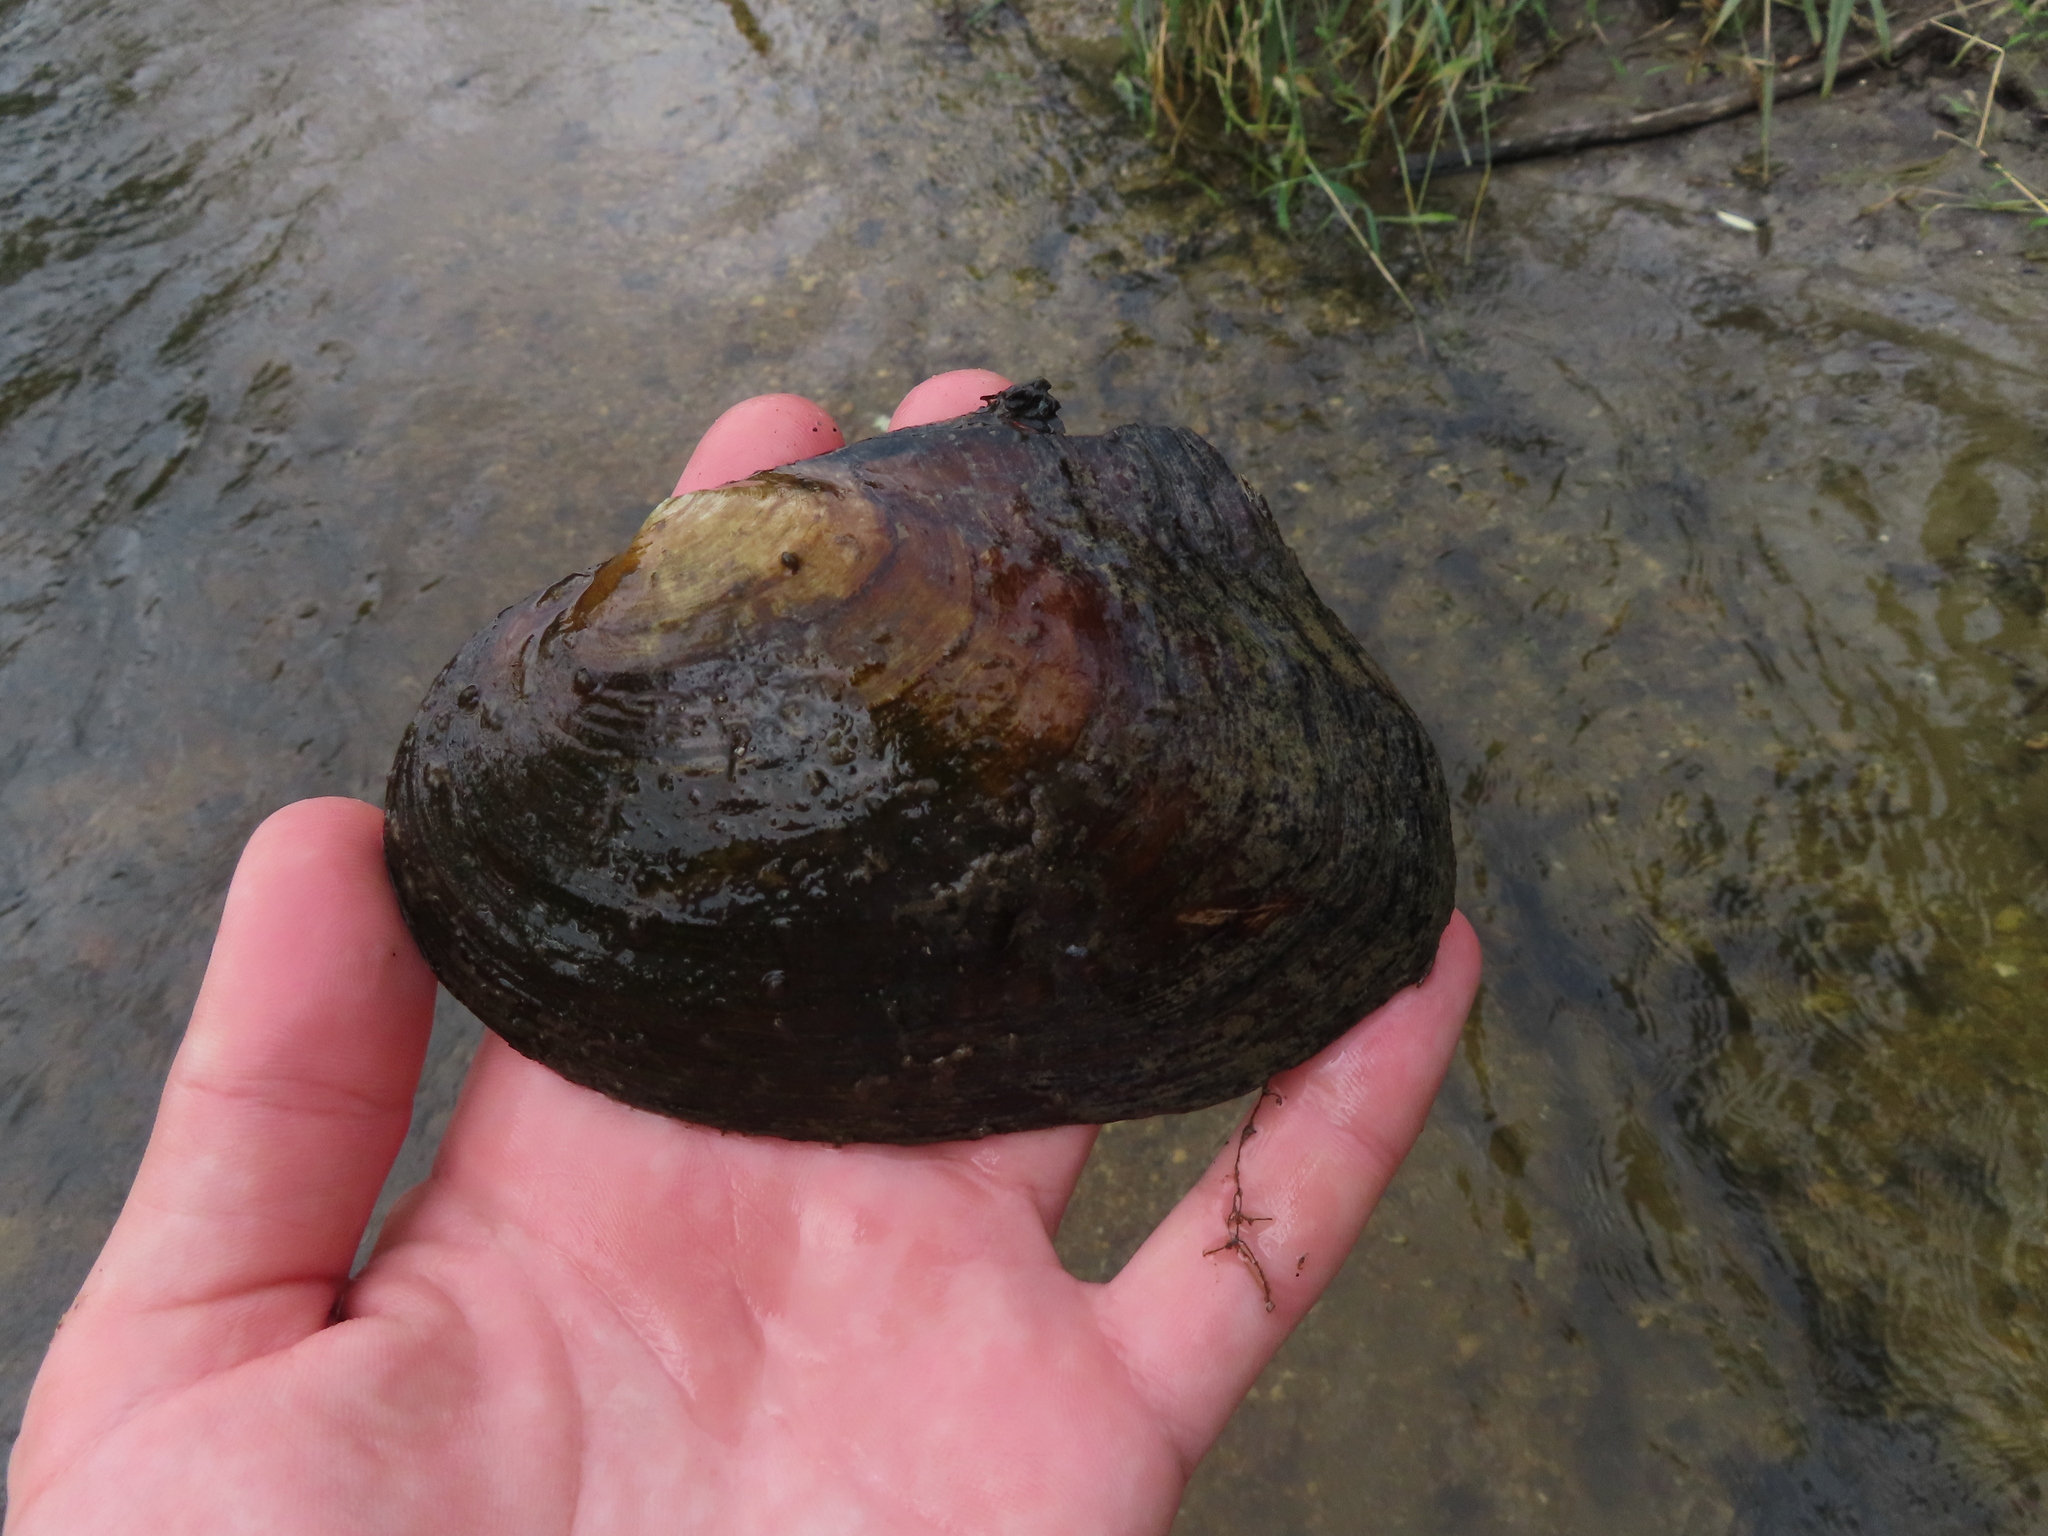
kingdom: Animalia
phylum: Mollusca
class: Bivalvia
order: Unionida
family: Unionidae
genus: Lasmigona
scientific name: Lasmigona complanata
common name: White heelsplitter
